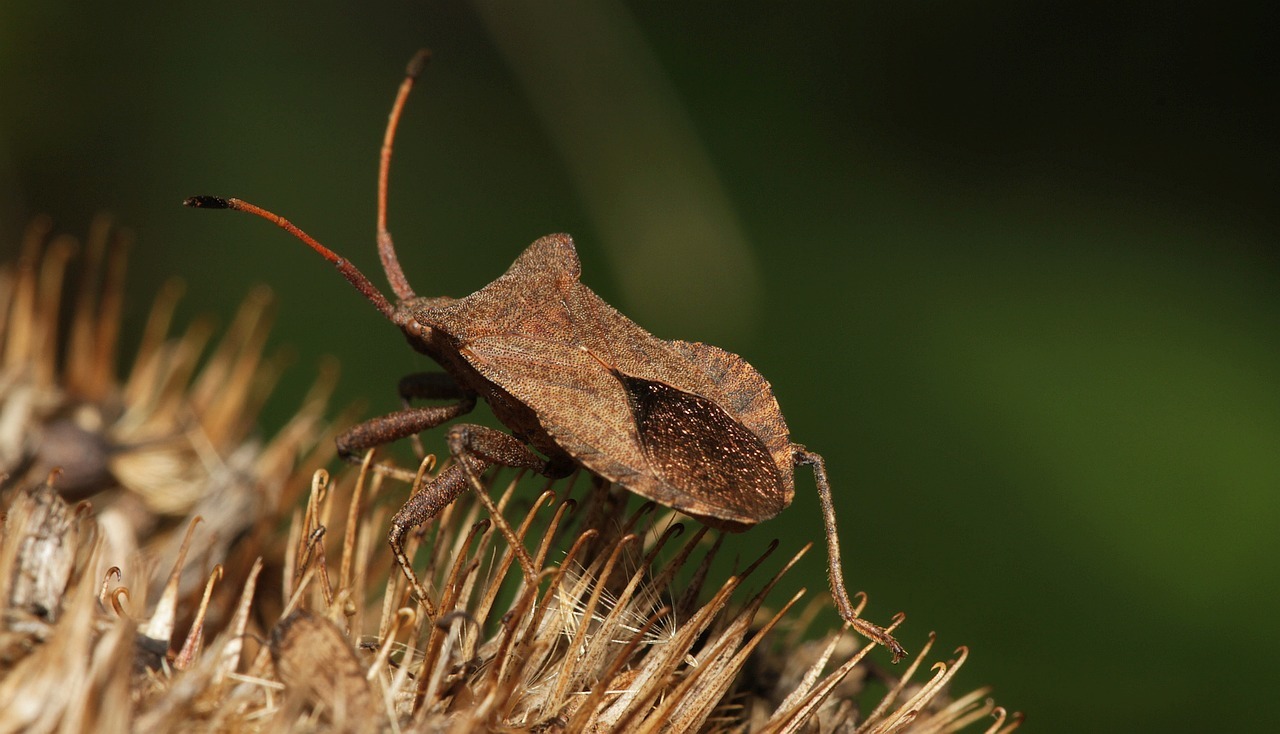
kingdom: Animalia
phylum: Arthropoda
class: Insecta
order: Hemiptera
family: Coreidae
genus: Coreus
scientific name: Coreus marginatus
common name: Dock bug
